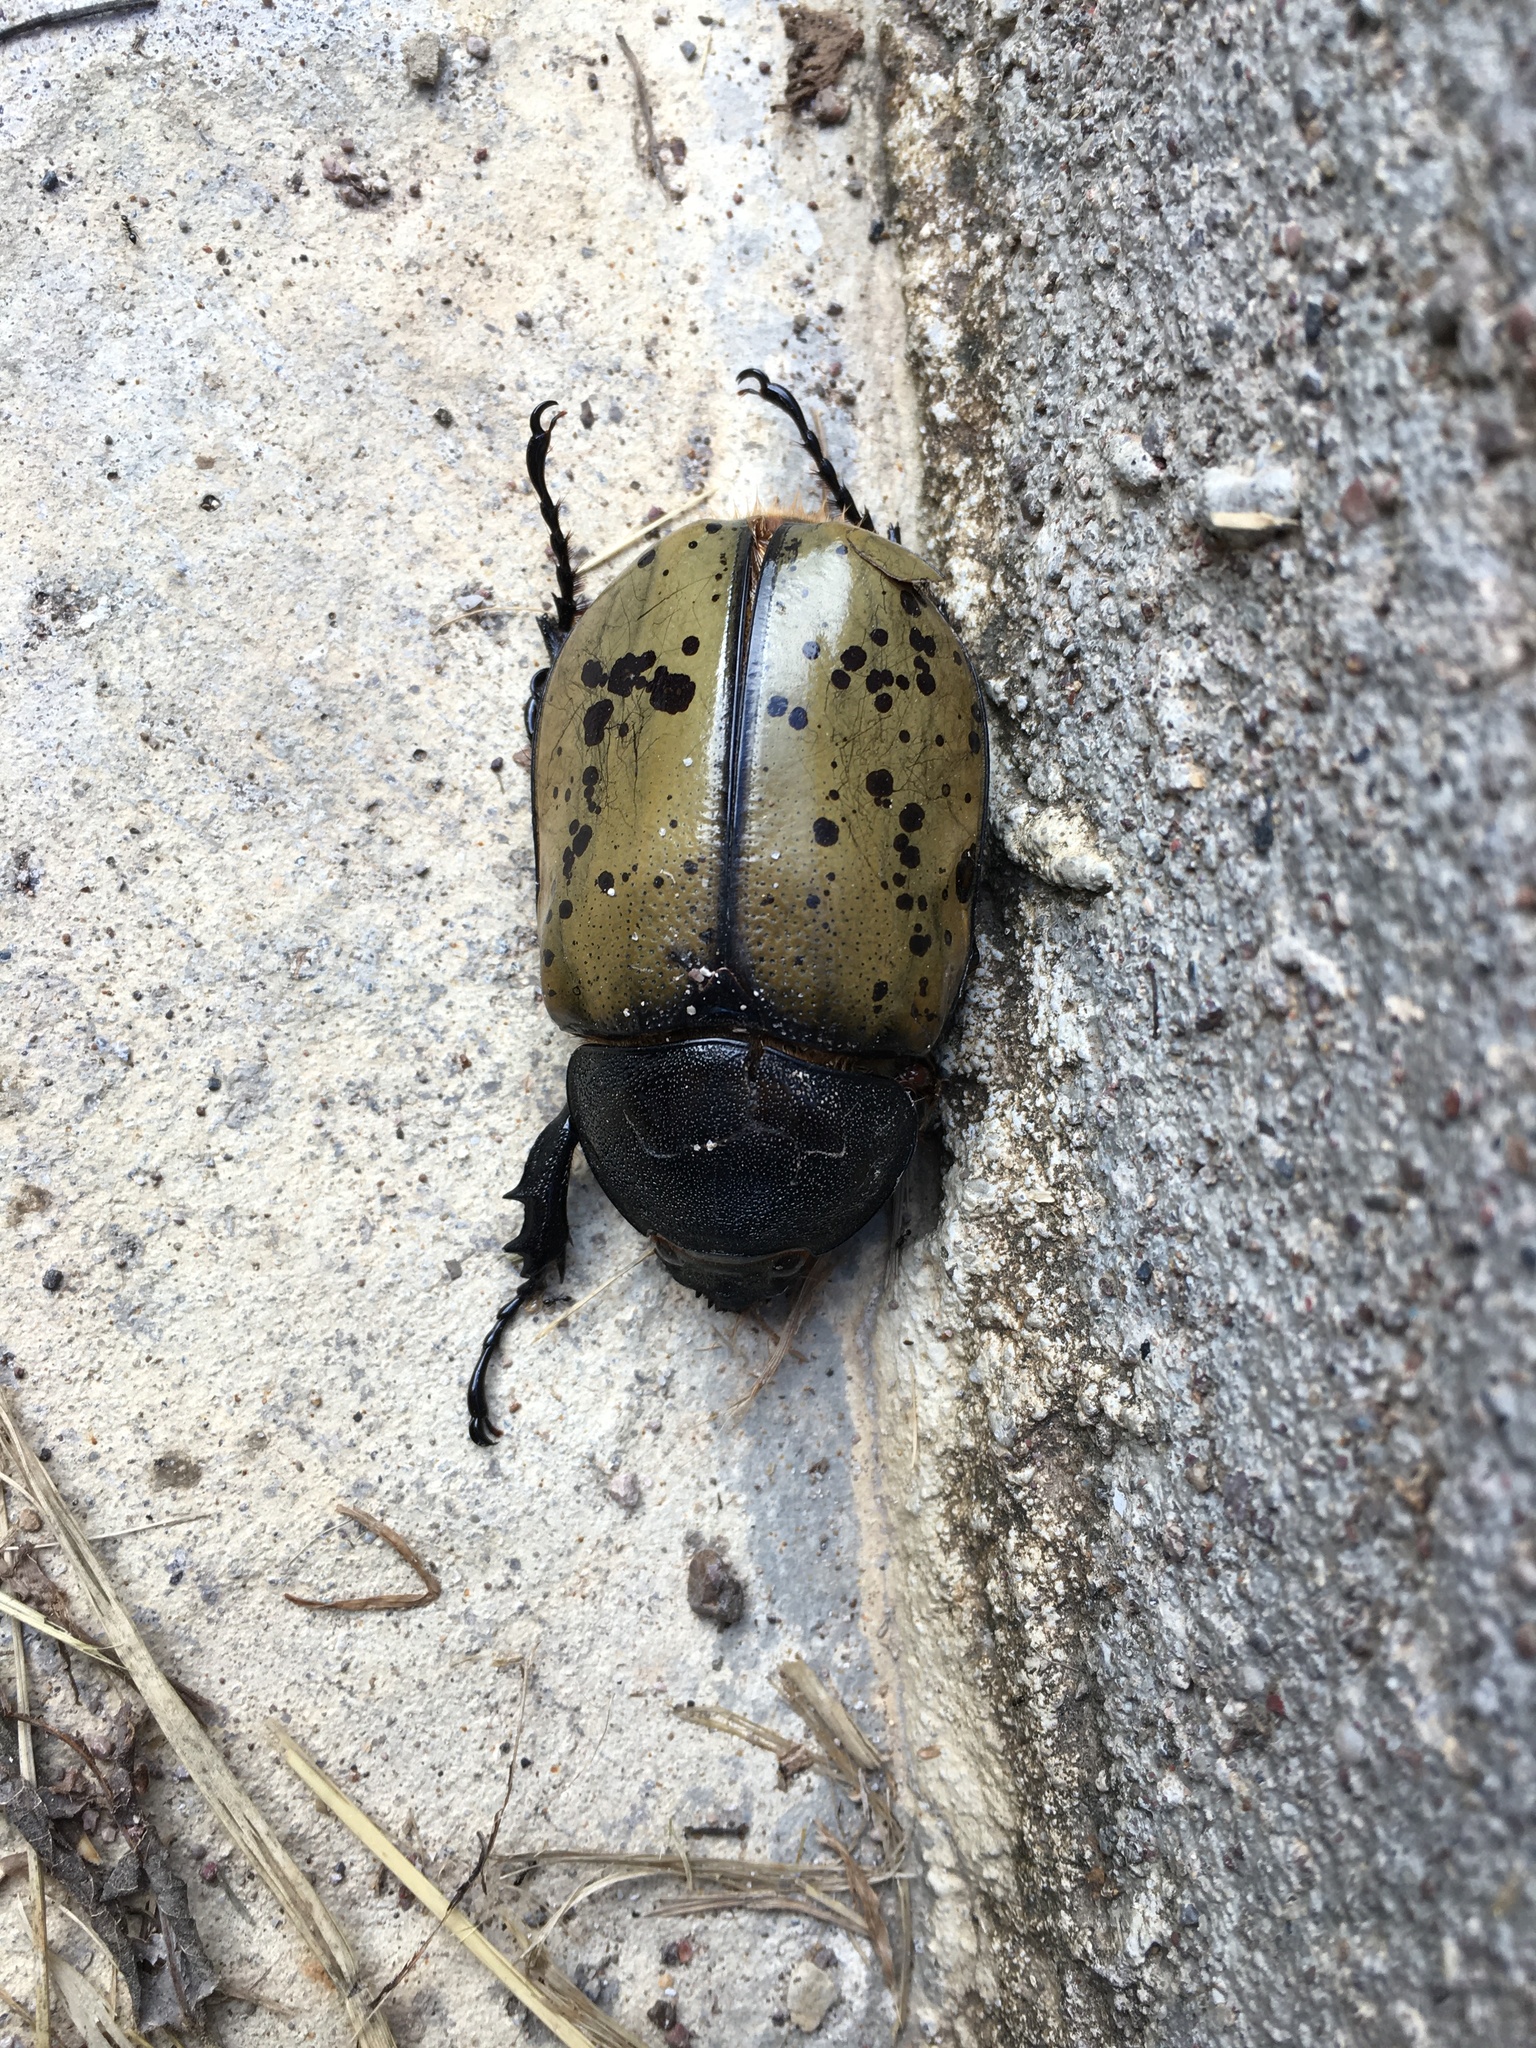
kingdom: Animalia
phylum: Arthropoda
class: Insecta
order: Coleoptera
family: Scarabaeidae
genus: Dynastes
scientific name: Dynastes hyllus
